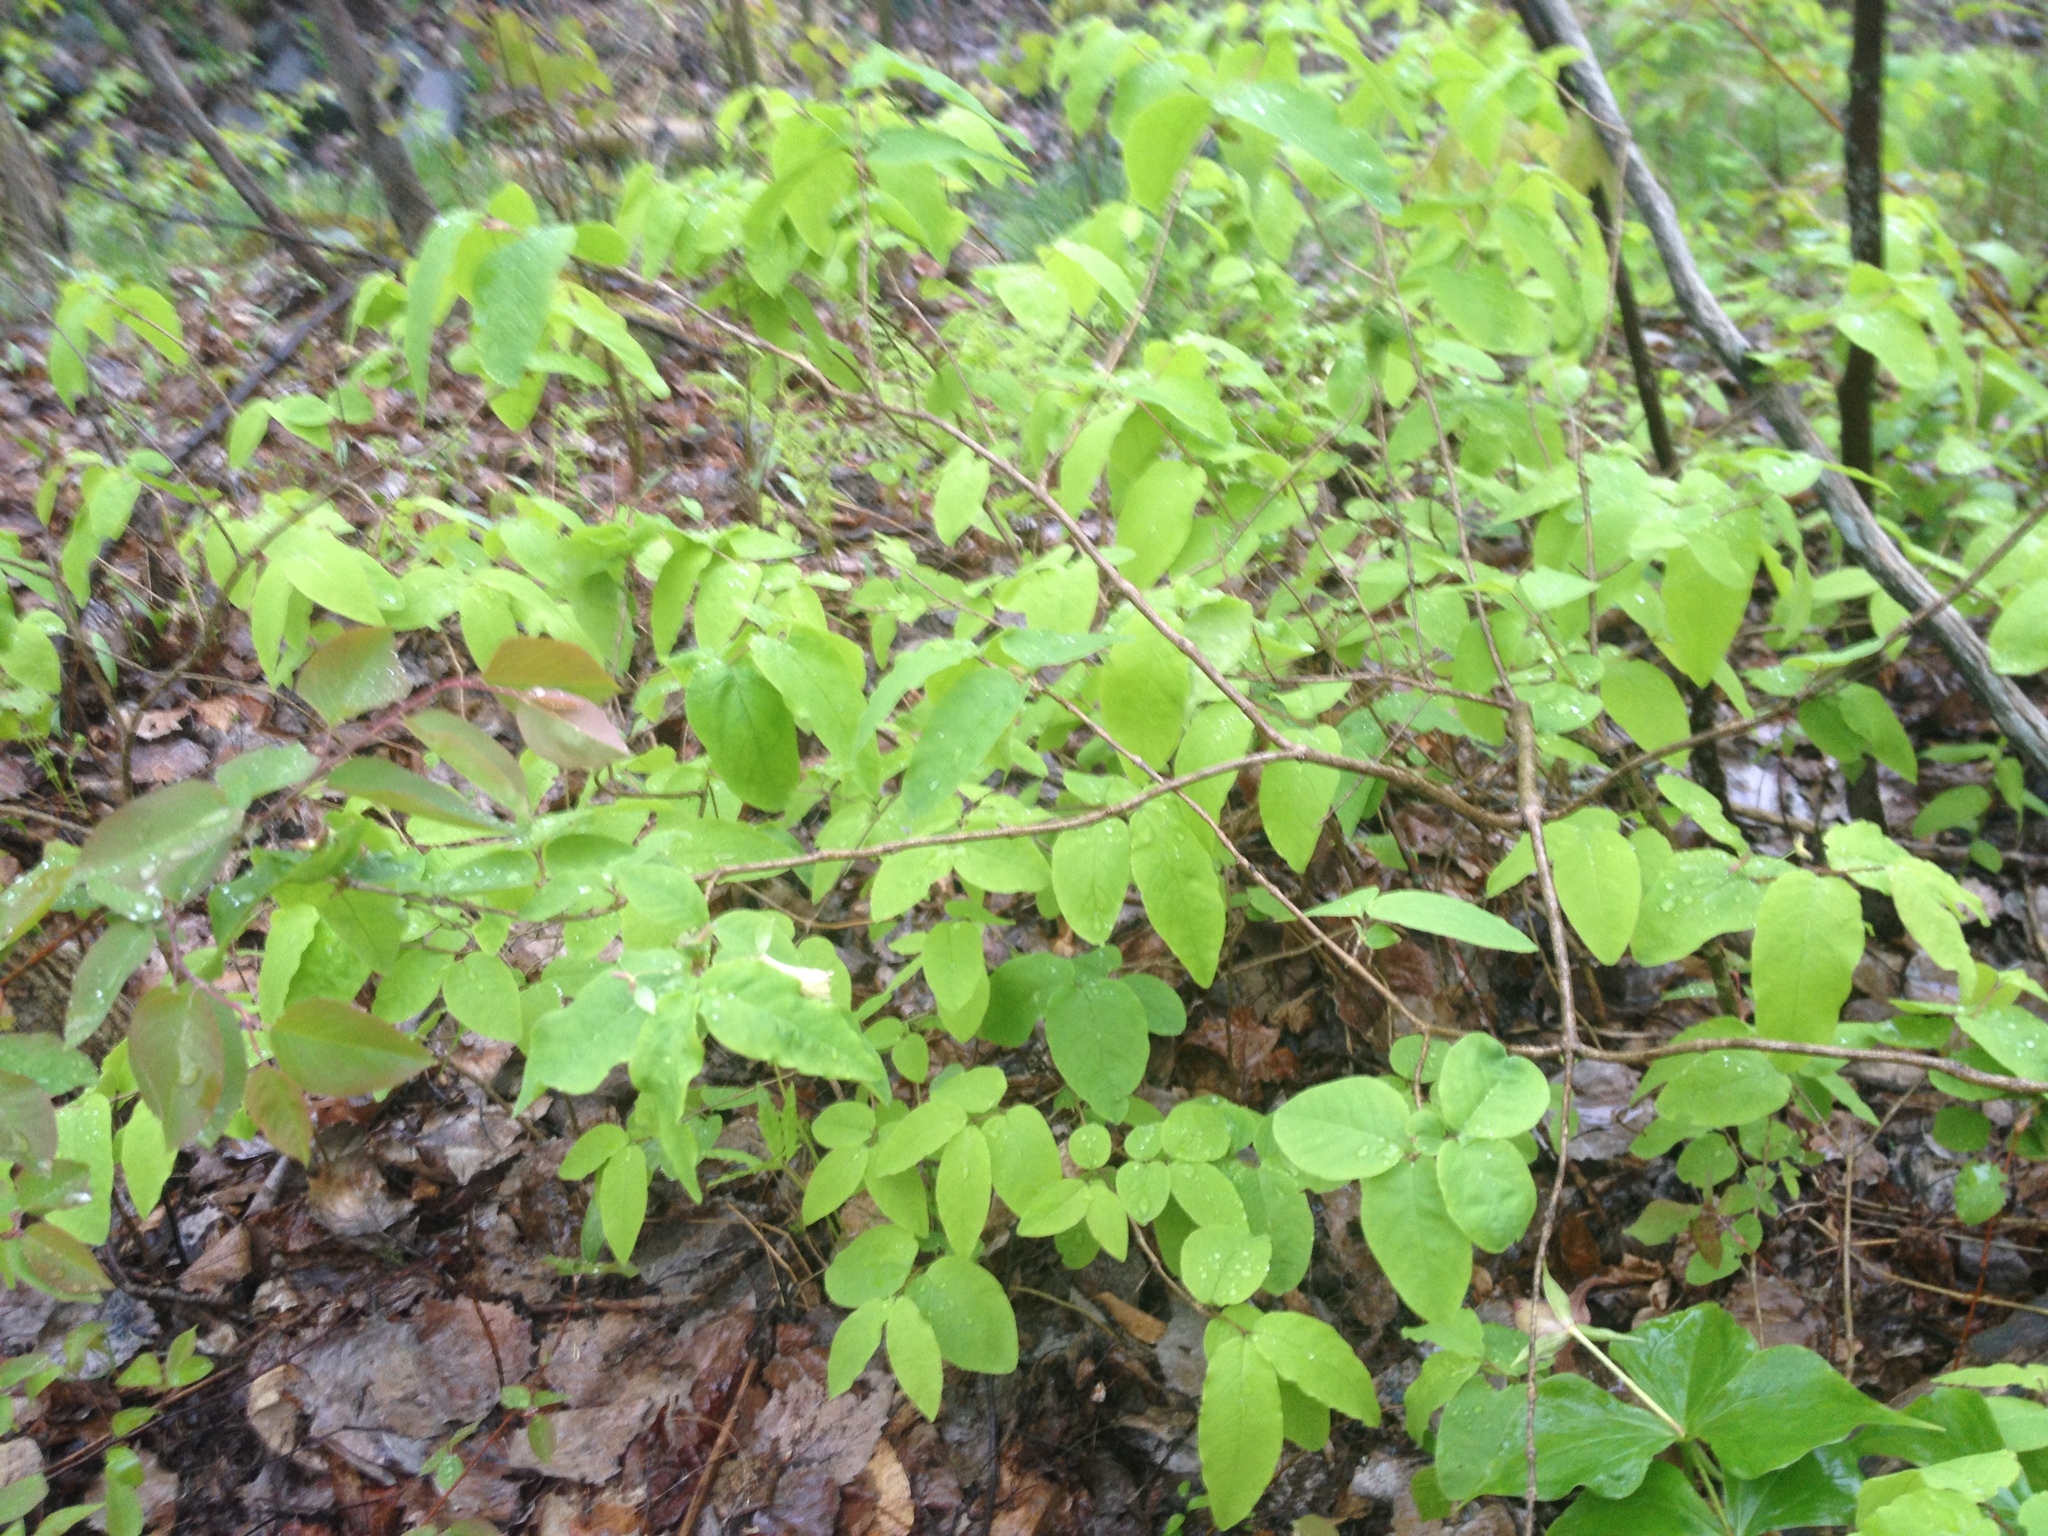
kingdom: Plantae
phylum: Tracheophyta
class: Magnoliopsida
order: Dipsacales
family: Caprifoliaceae
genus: Lonicera
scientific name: Lonicera canadensis
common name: American fly-honeysuckle
